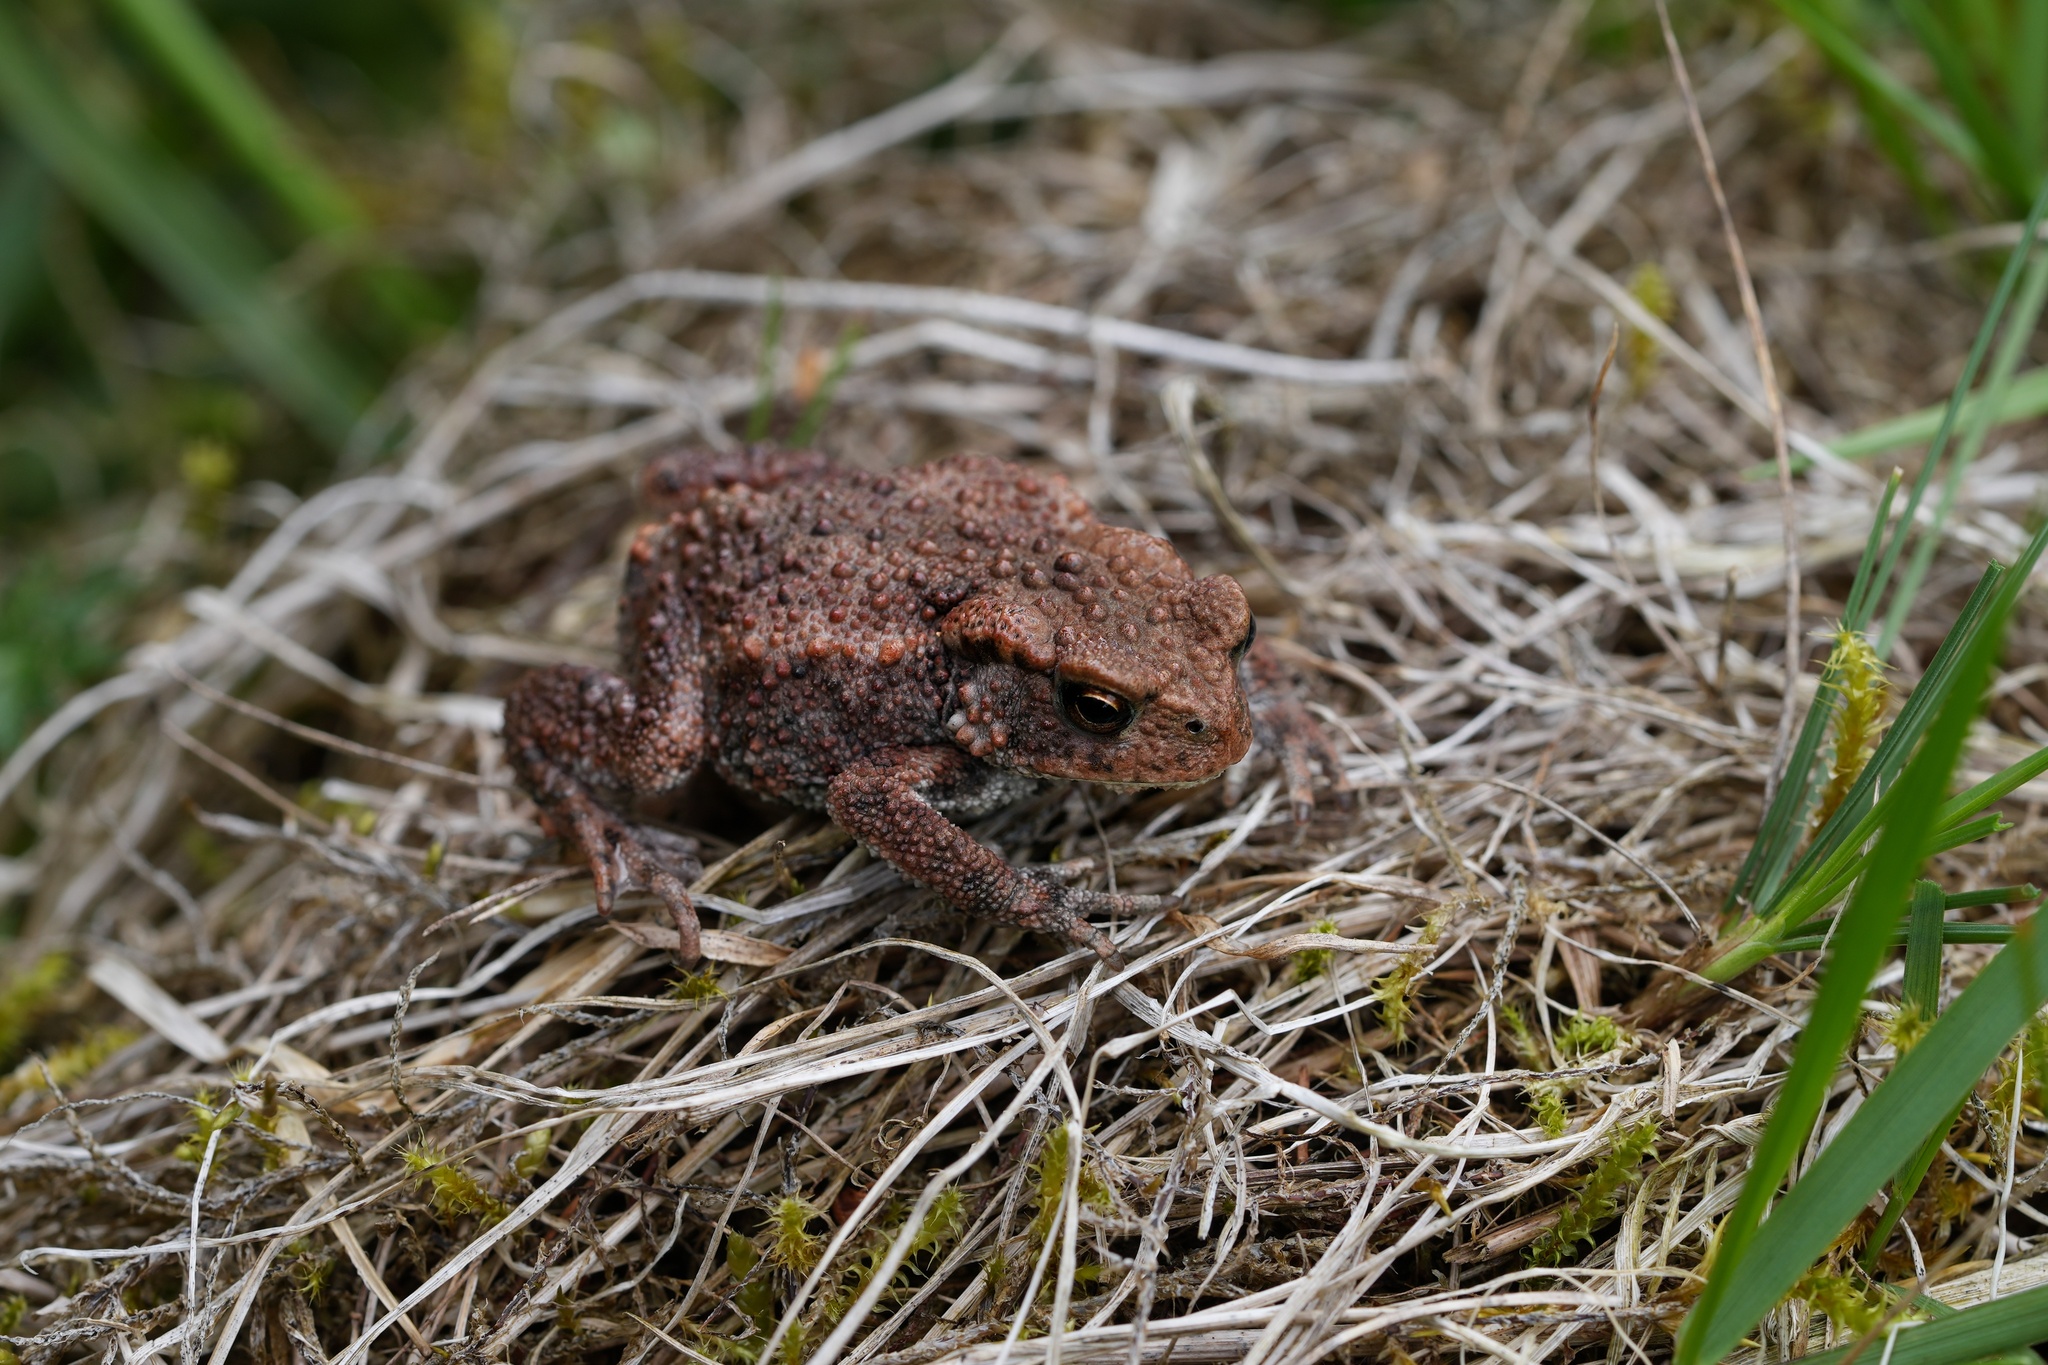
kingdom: Animalia
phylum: Chordata
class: Amphibia
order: Anura
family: Bufonidae
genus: Bufo
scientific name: Bufo bufo
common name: Common toad
